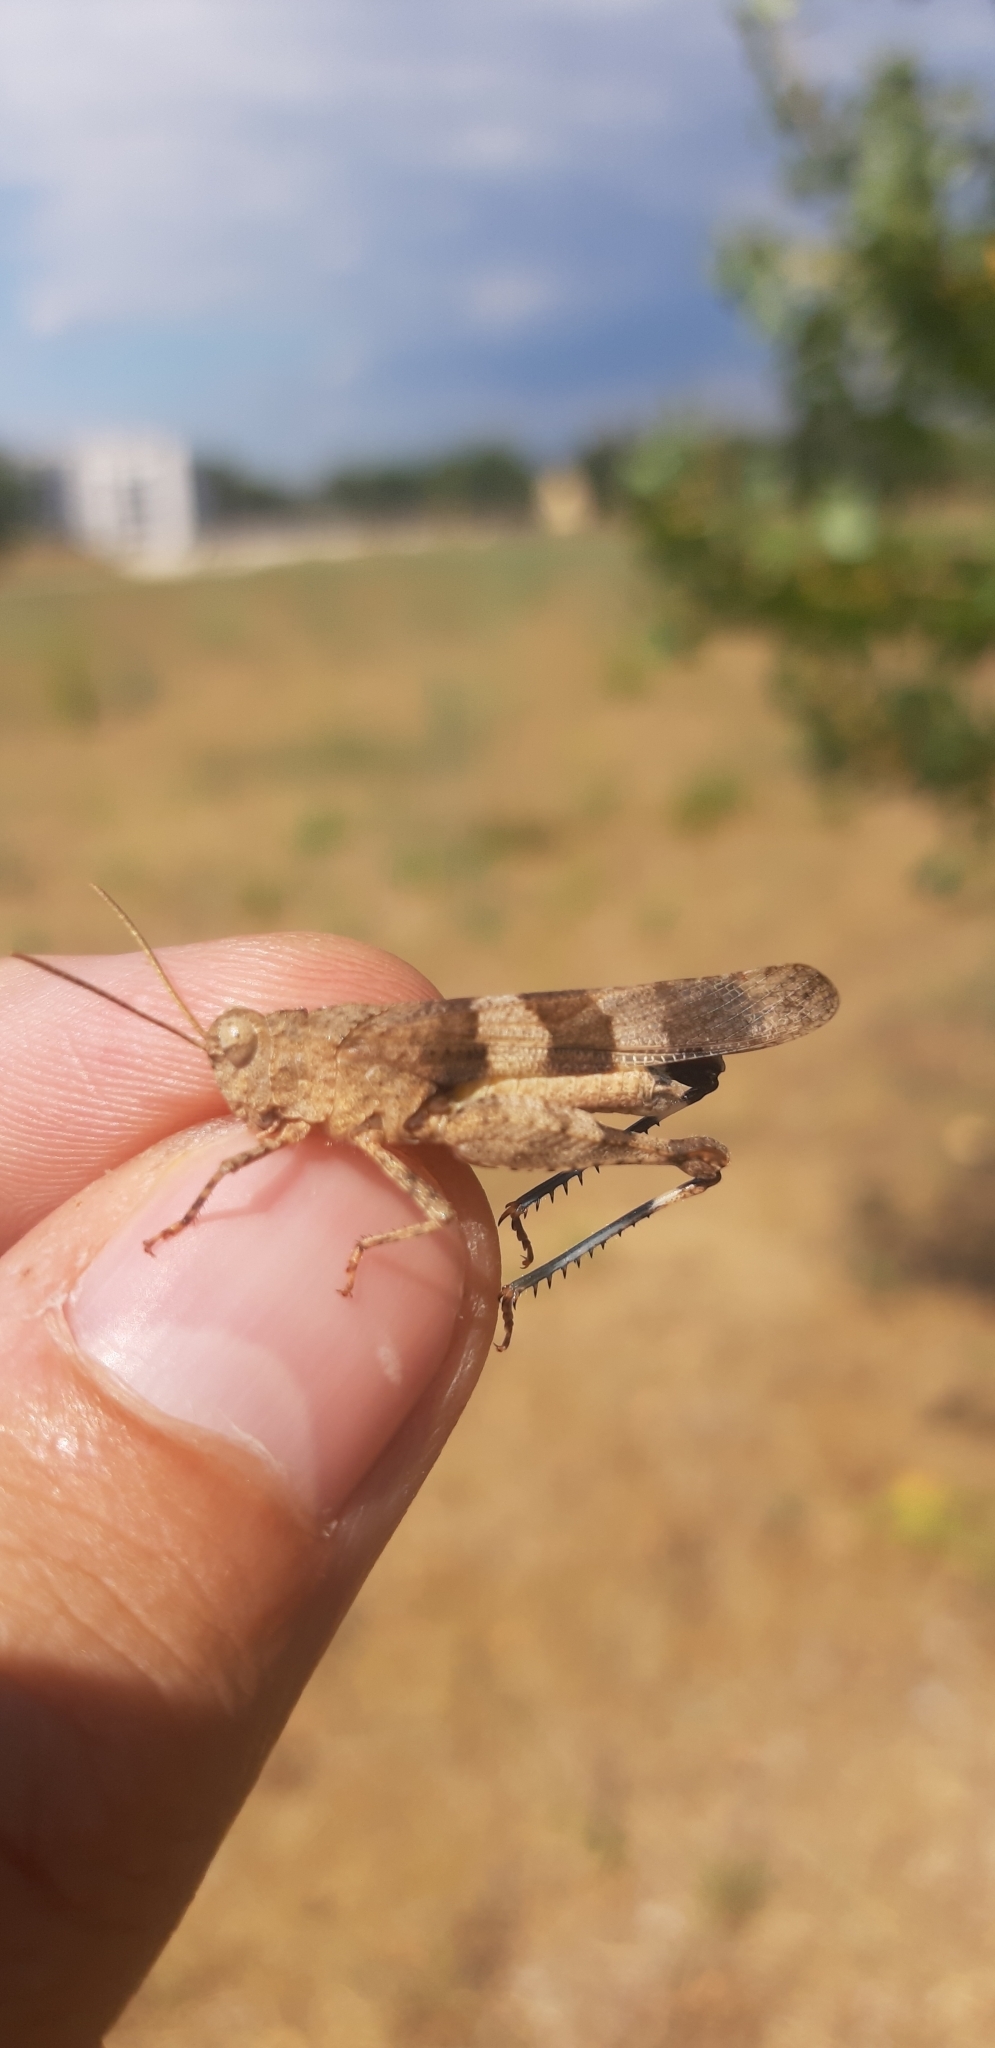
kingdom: Animalia
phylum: Arthropoda
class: Insecta
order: Orthoptera
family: Acrididae
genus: Oedipoda
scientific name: Oedipoda caerulescens
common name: Blue-winged grasshopper
